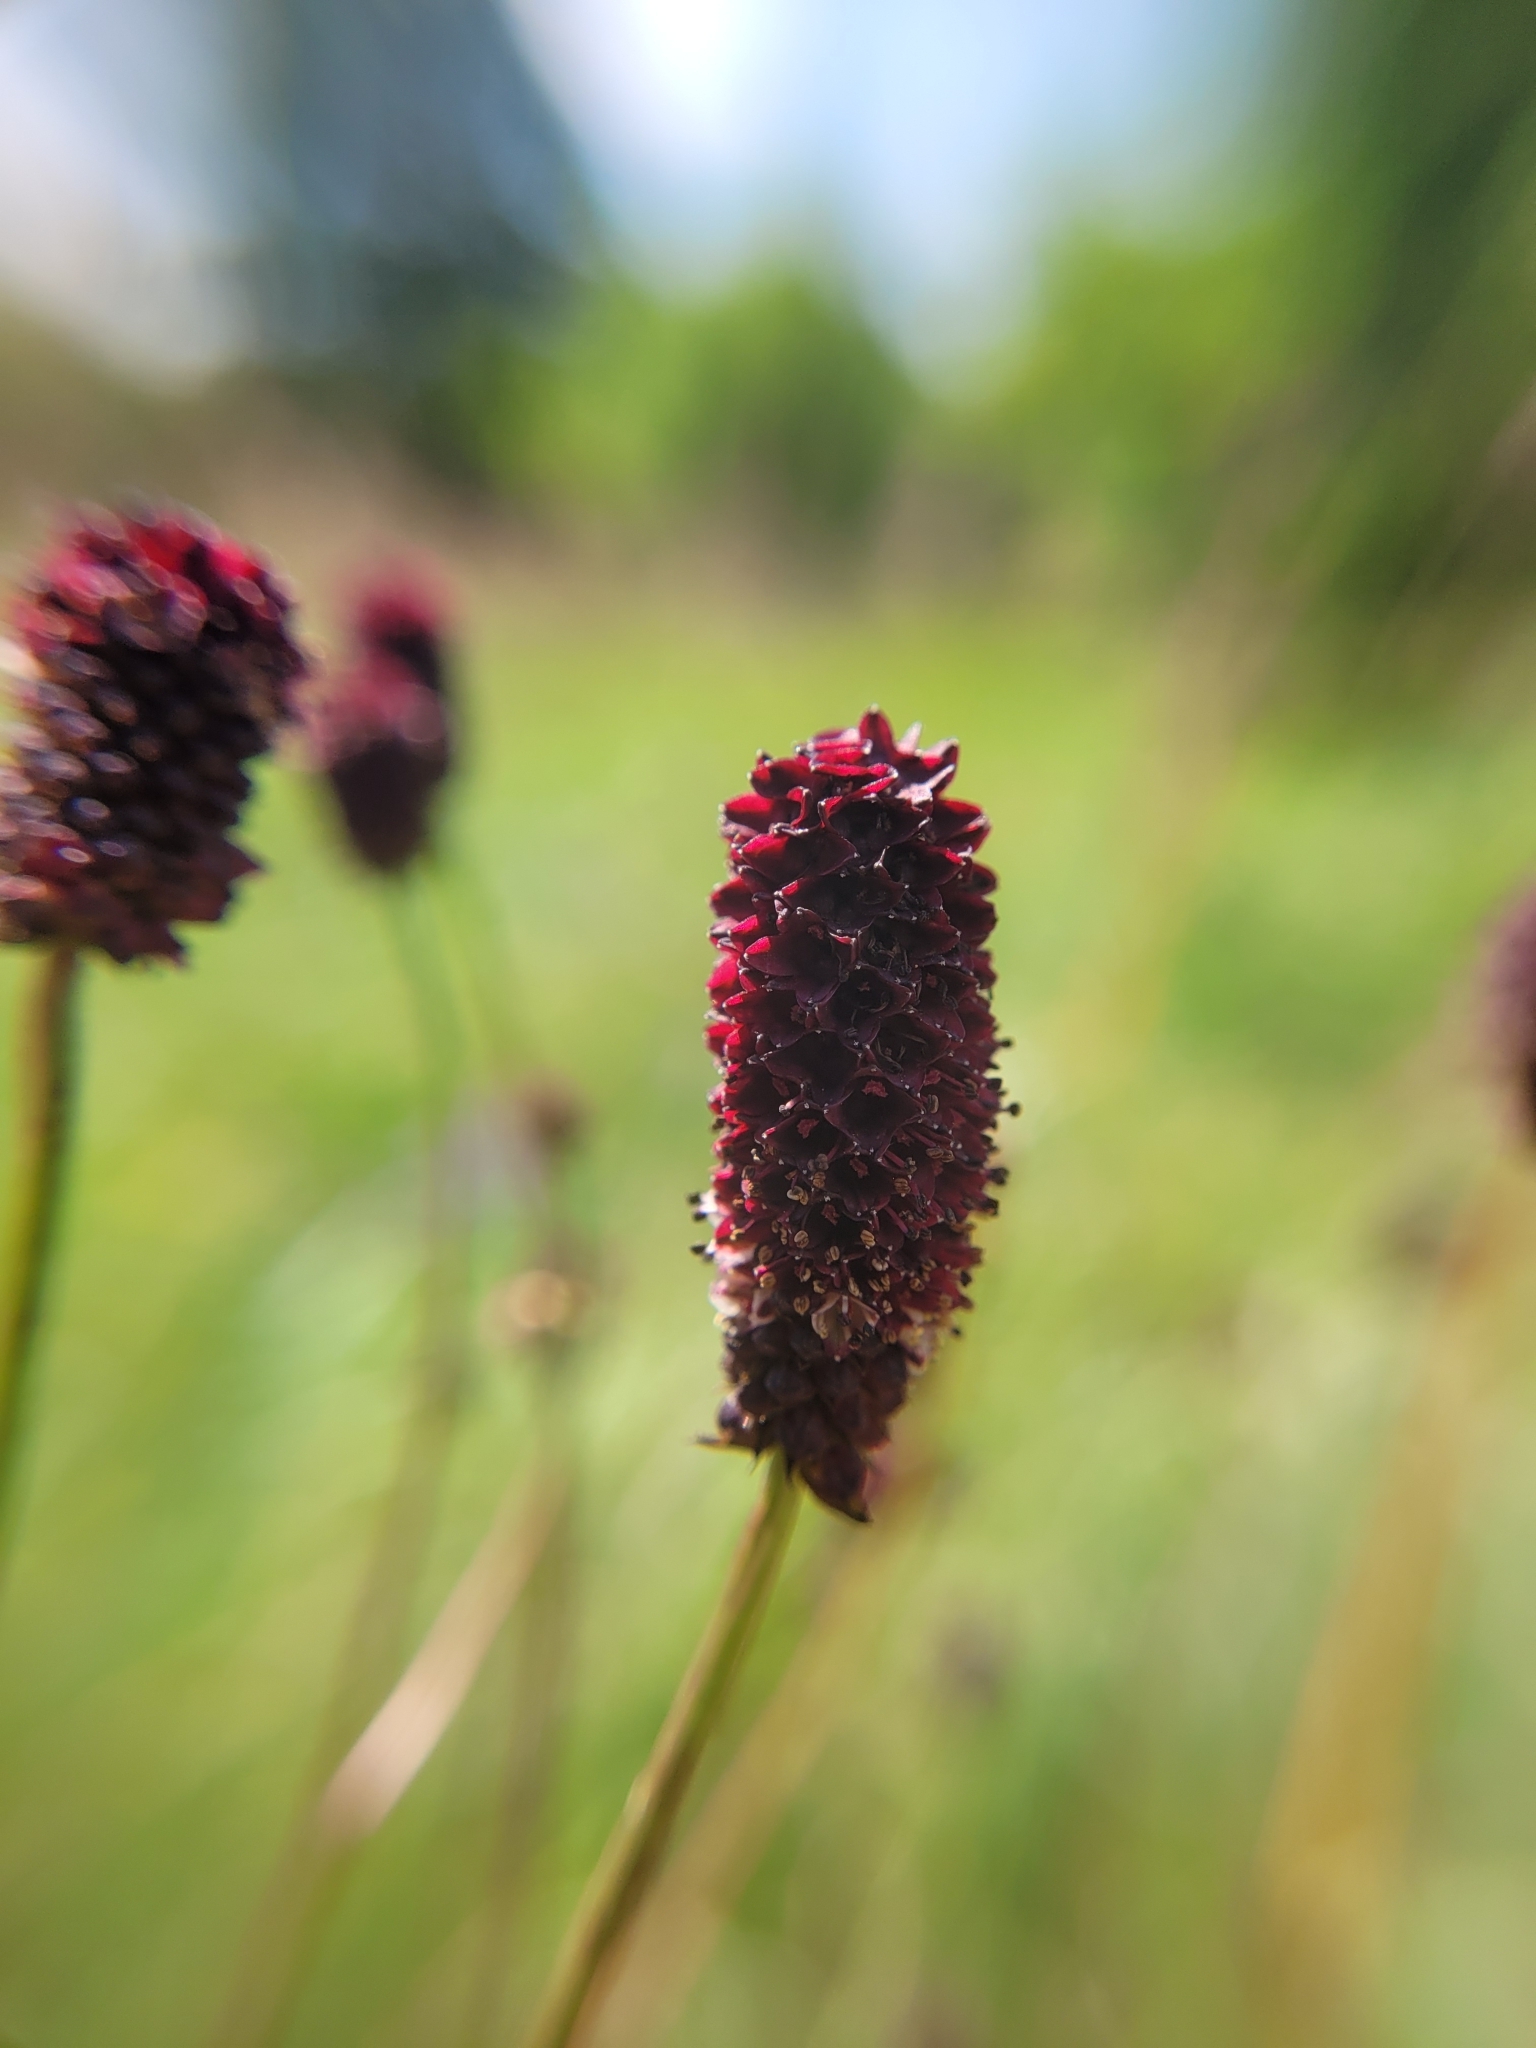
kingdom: Plantae
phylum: Tracheophyta
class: Magnoliopsida
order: Rosales
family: Rosaceae
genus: Sanguisorba
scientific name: Sanguisorba officinalis
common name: Great burnet
